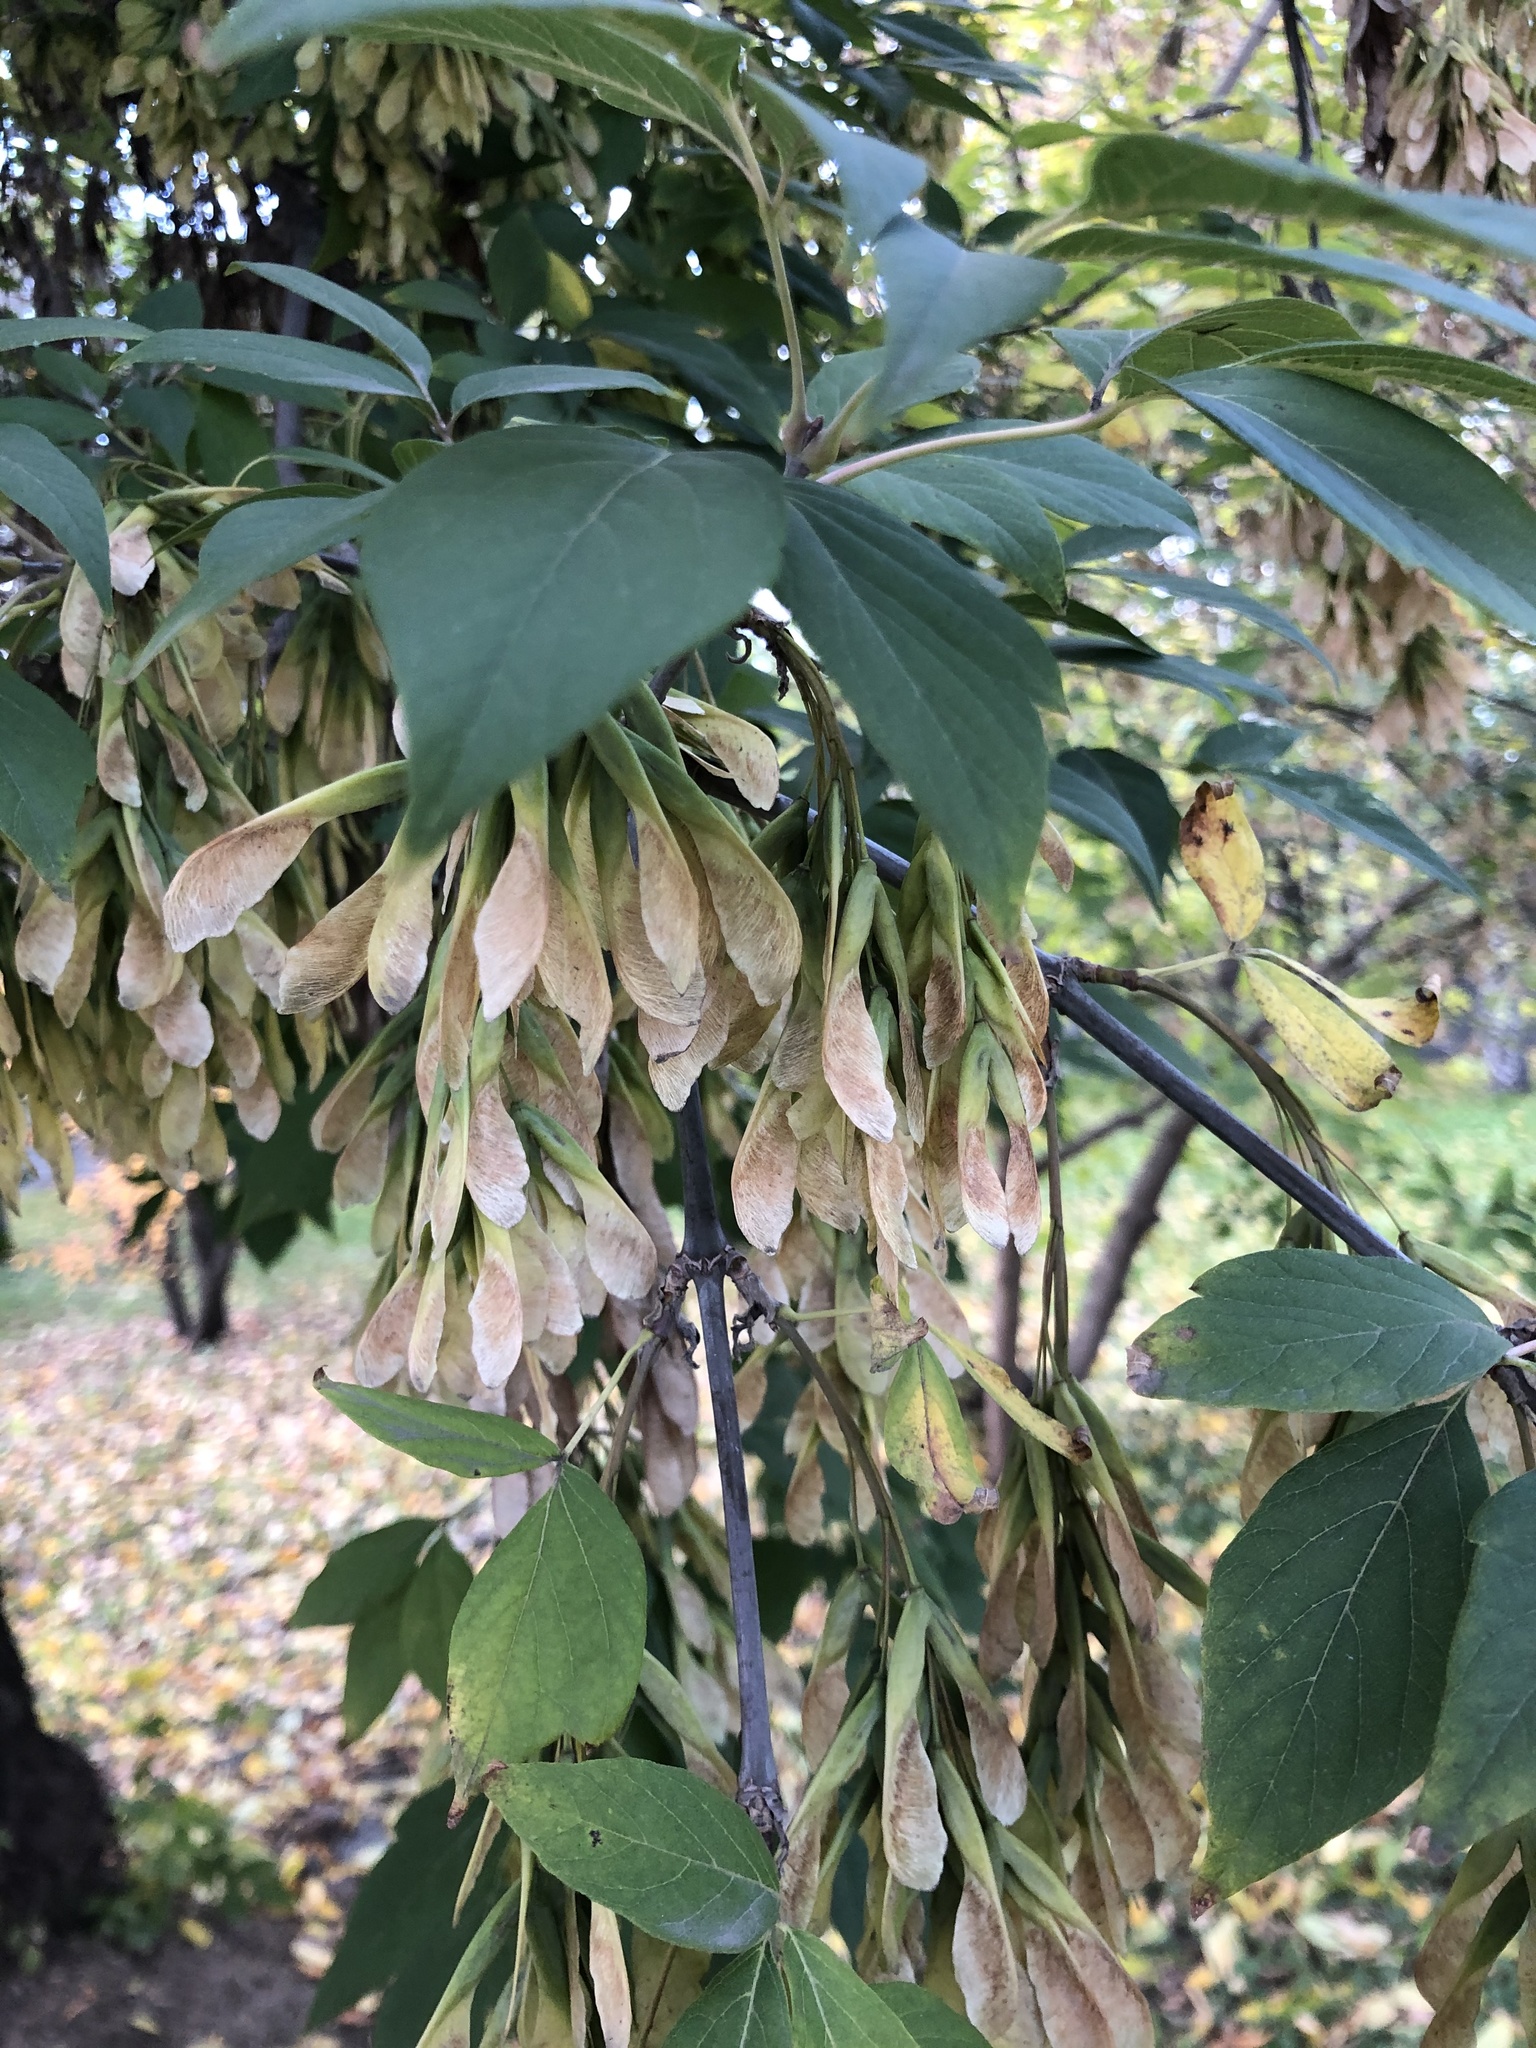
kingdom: Plantae
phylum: Tracheophyta
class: Magnoliopsida
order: Sapindales
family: Sapindaceae
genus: Acer
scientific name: Acer negundo
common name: Ashleaf maple
